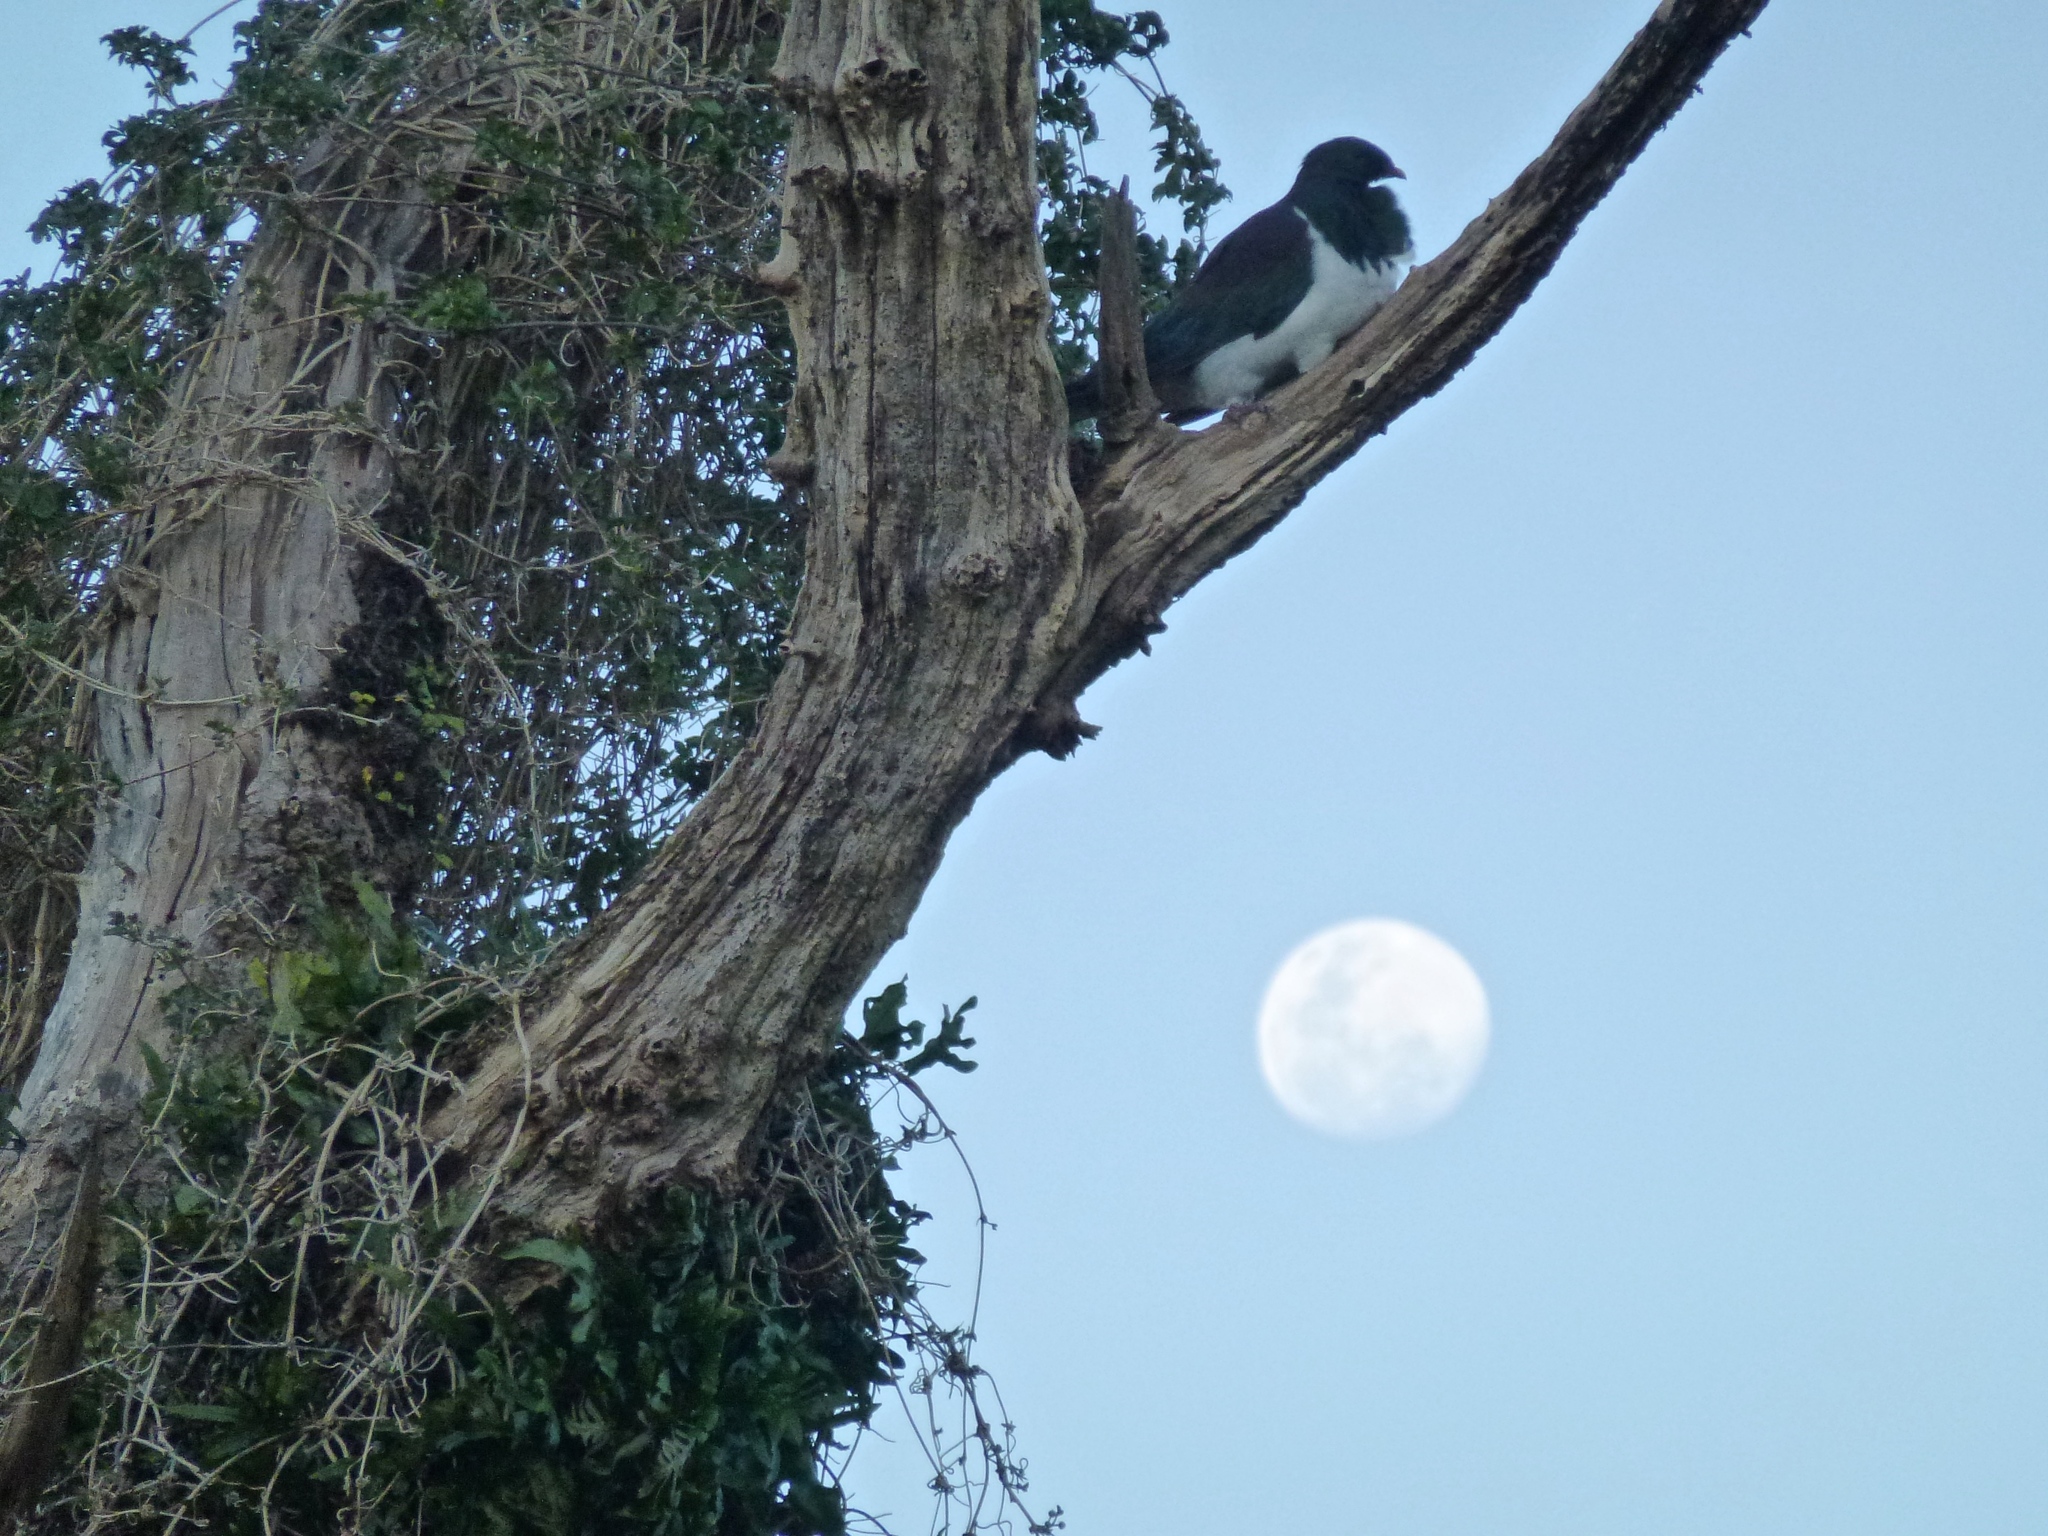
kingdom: Animalia
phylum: Chordata
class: Aves
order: Columbiformes
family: Columbidae
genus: Hemiphaga
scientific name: Hemiphaga novaeseelandiae
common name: New zealand pigeon
